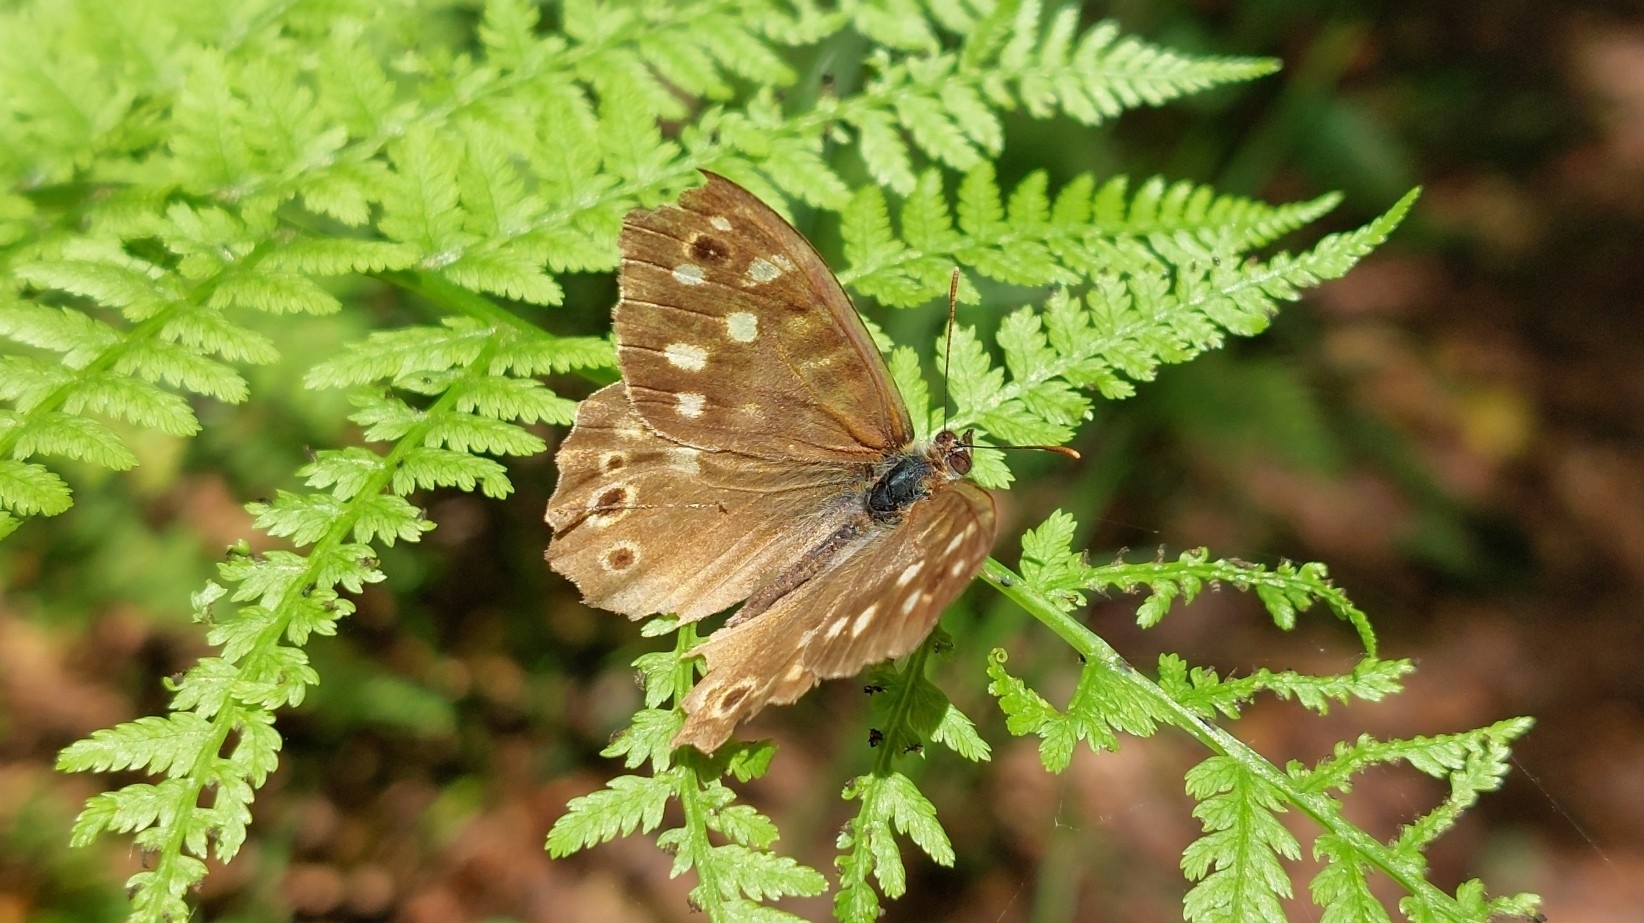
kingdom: Animalia
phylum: Arthropoda
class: Insecta
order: Lepidoptera
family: Nymphalidae
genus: Pararge
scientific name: Pararge aegeria
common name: Speckled wood
